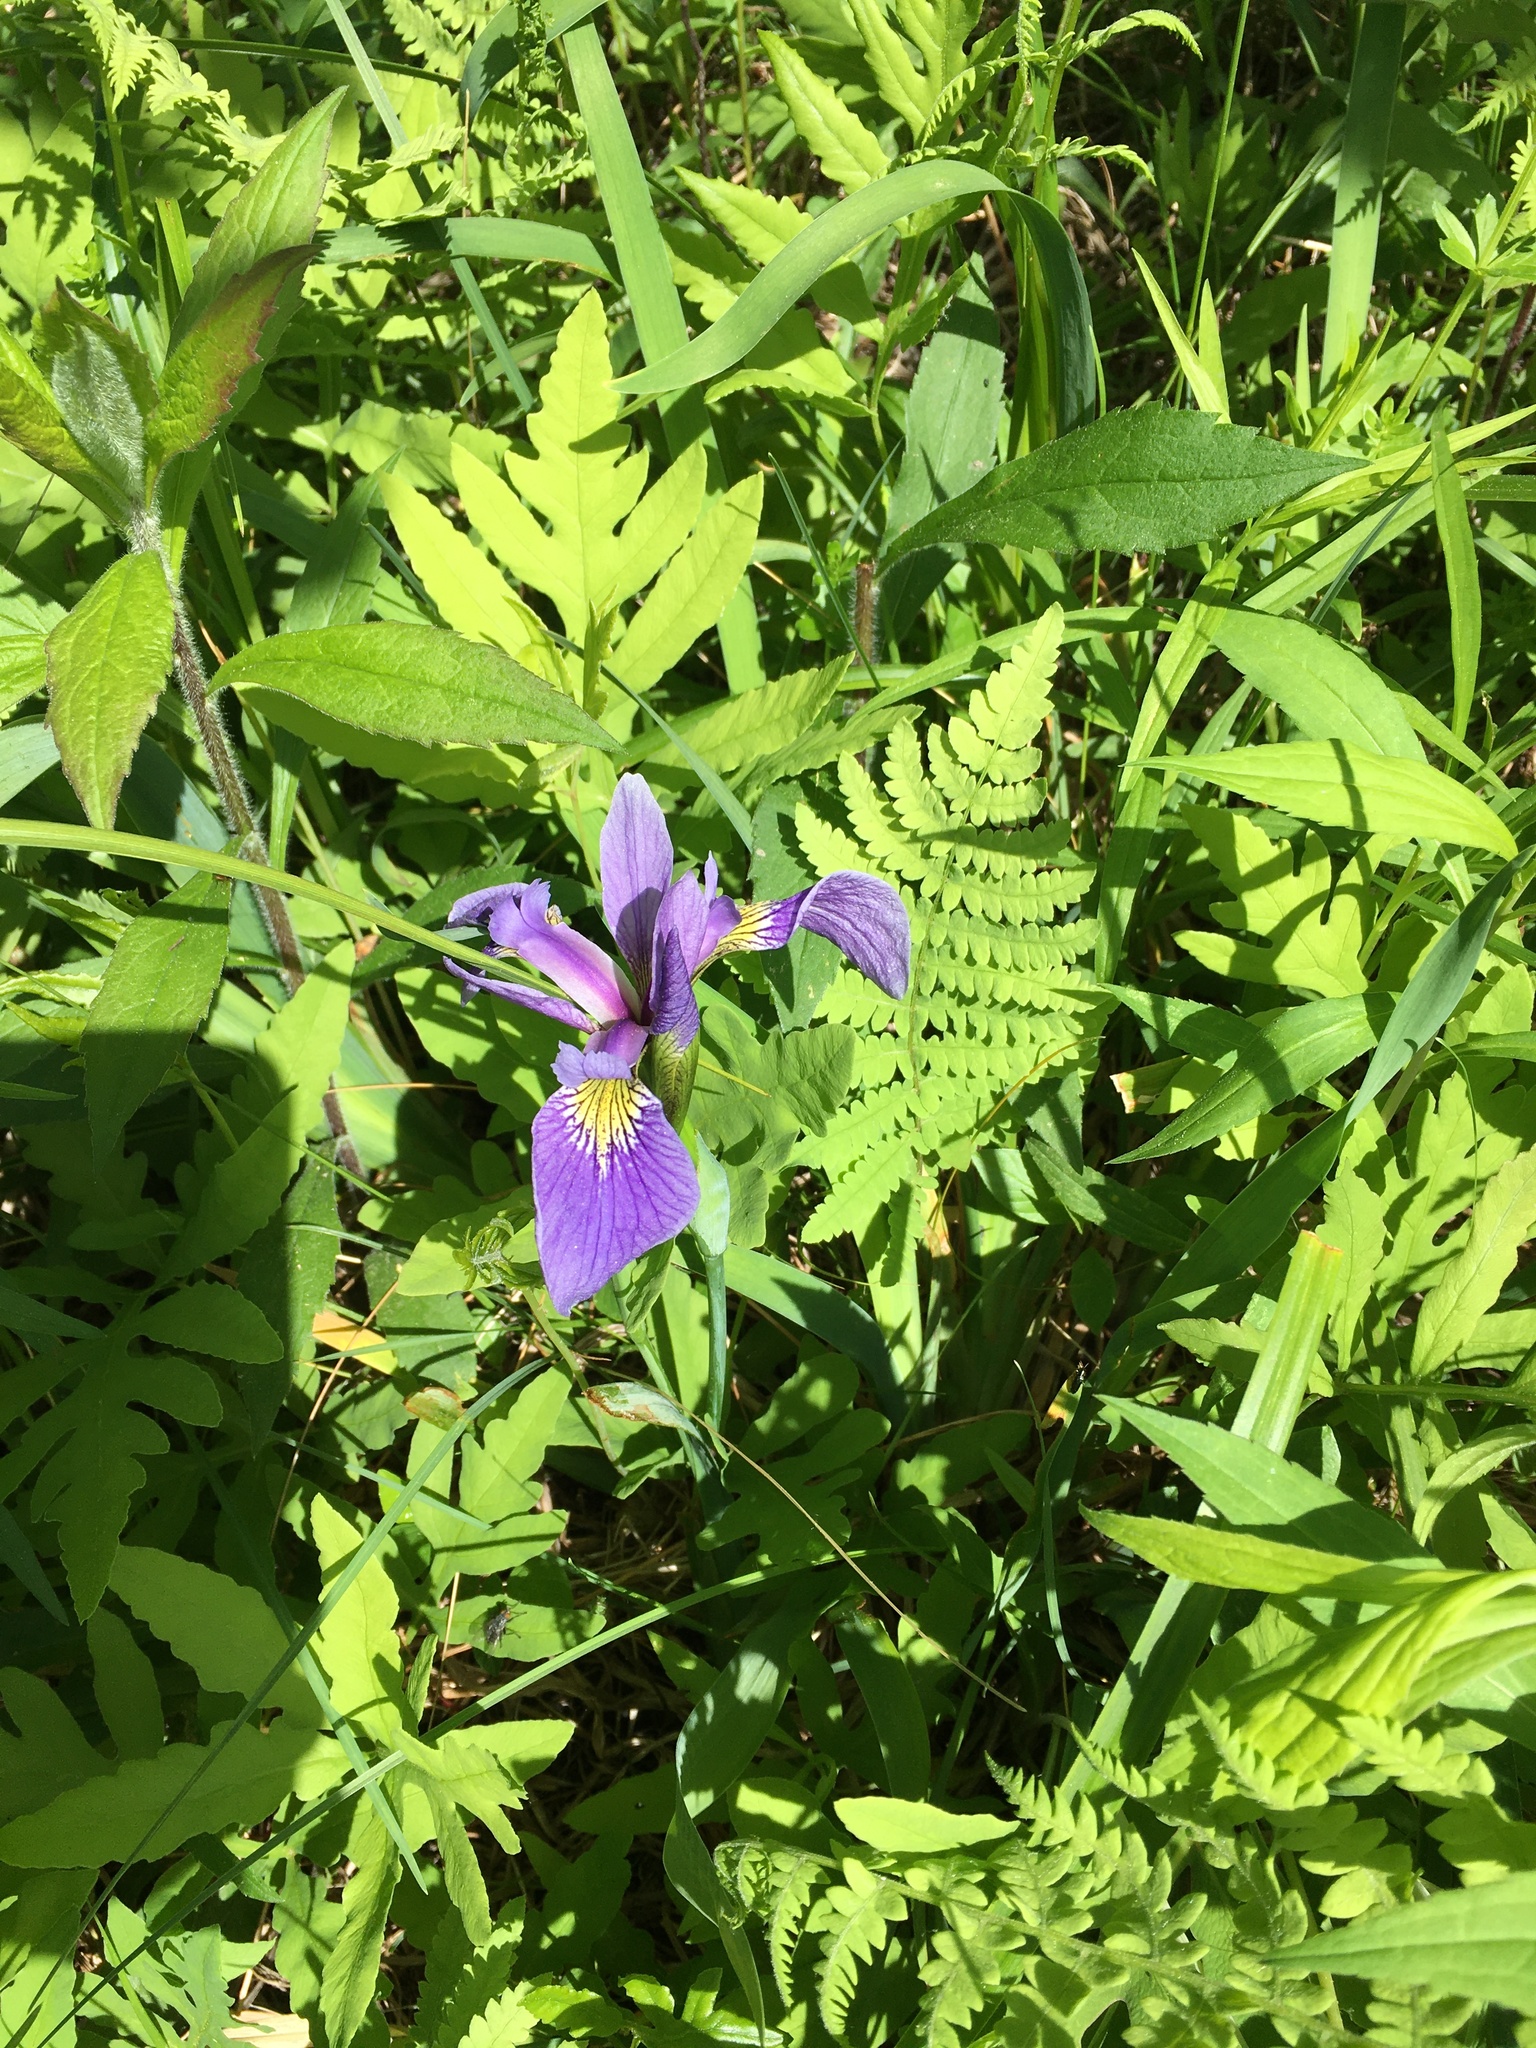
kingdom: Plantae
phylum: Tracheophyta
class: Liliopsida
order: Asparagales
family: Iridaceae
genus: Iris
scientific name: Iris versicolor
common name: Purple iris
